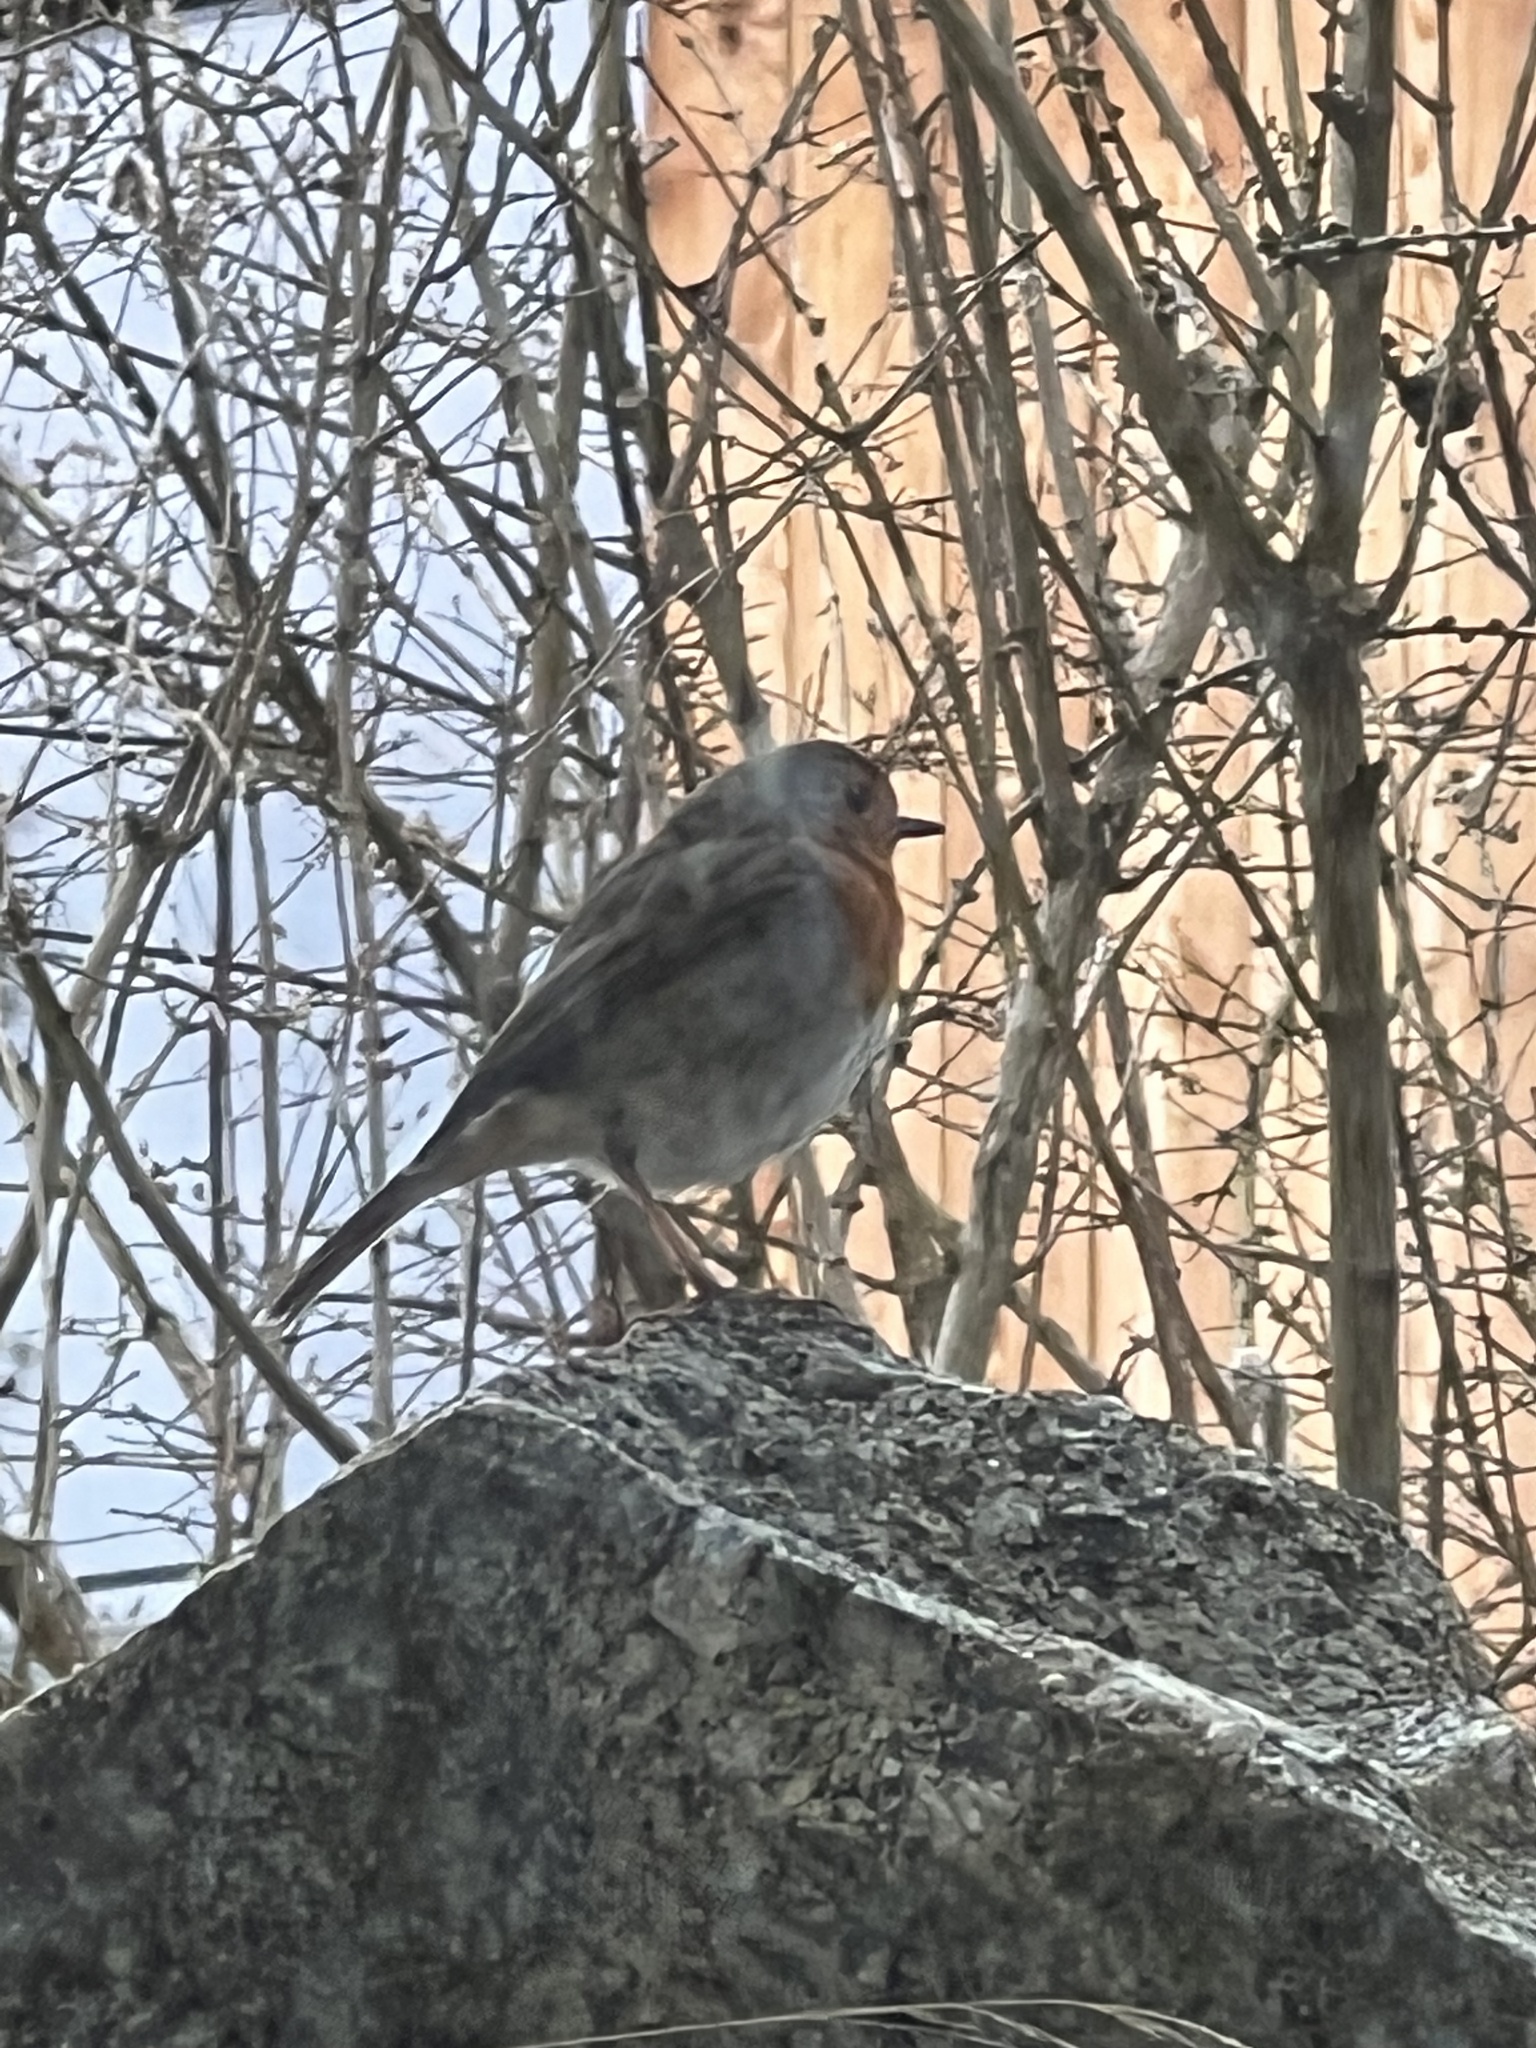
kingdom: Animalia
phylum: Chordata
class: Aves
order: Passeriformes
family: Muscicapidae
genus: Erithacus
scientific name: Erithacus rubecula
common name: European robin
